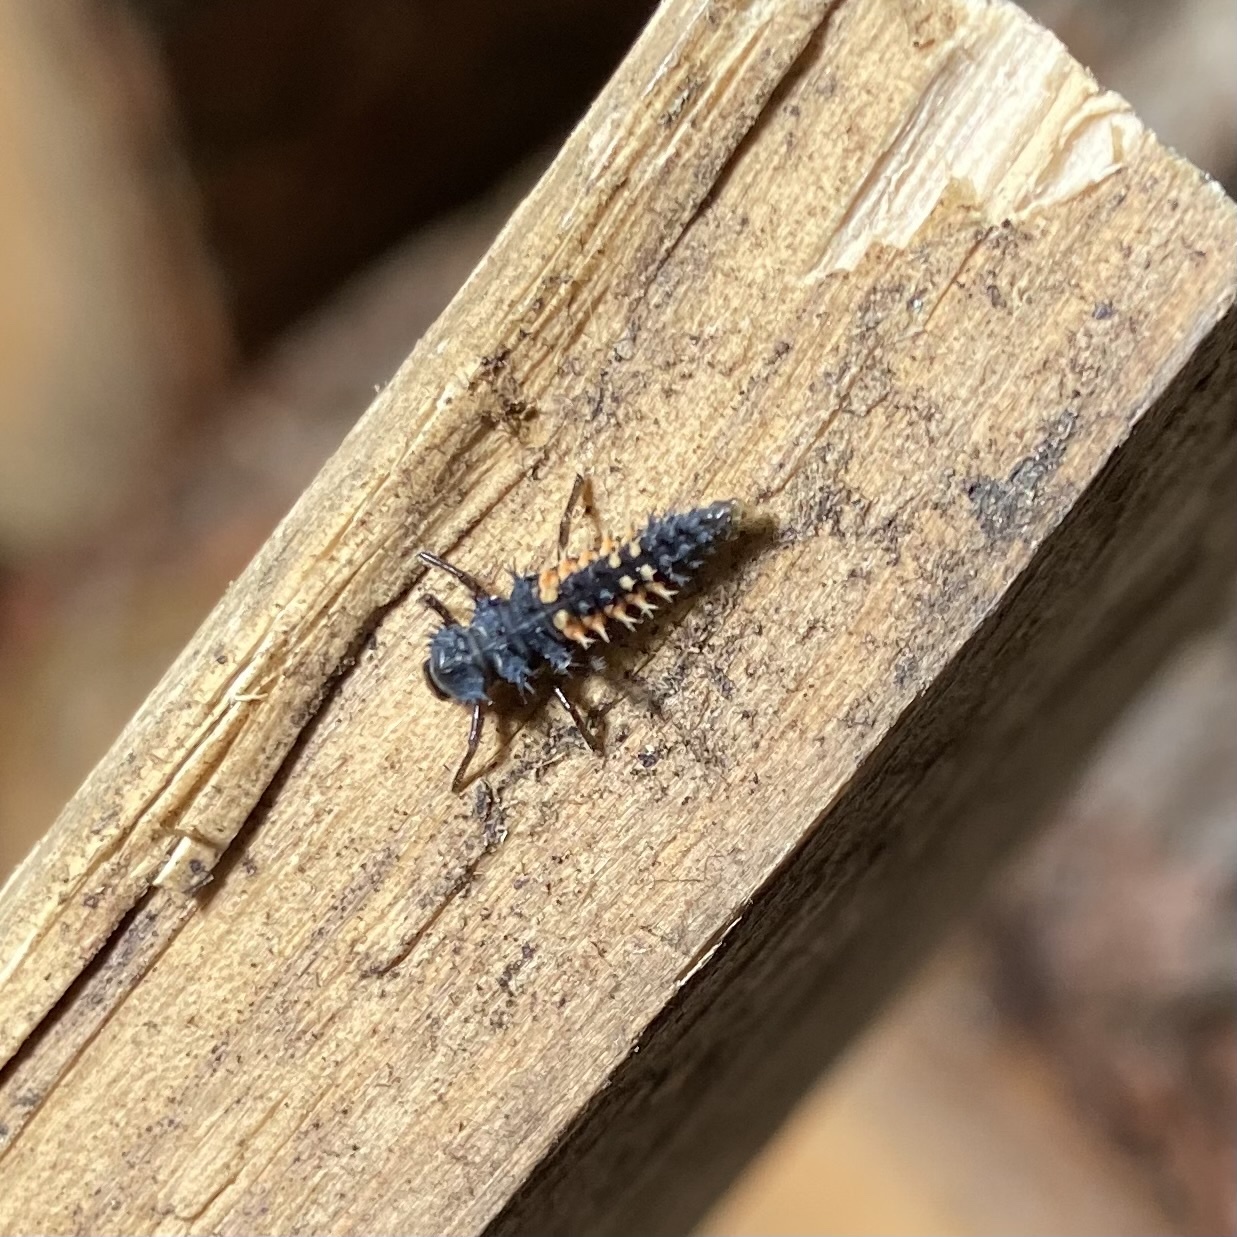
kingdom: Animalia
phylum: Arthropoda
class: Insecta
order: Coleoptera
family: Coccinellidae
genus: Harmonia
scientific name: Harmonia axyridis
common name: Harlequin ladybird
